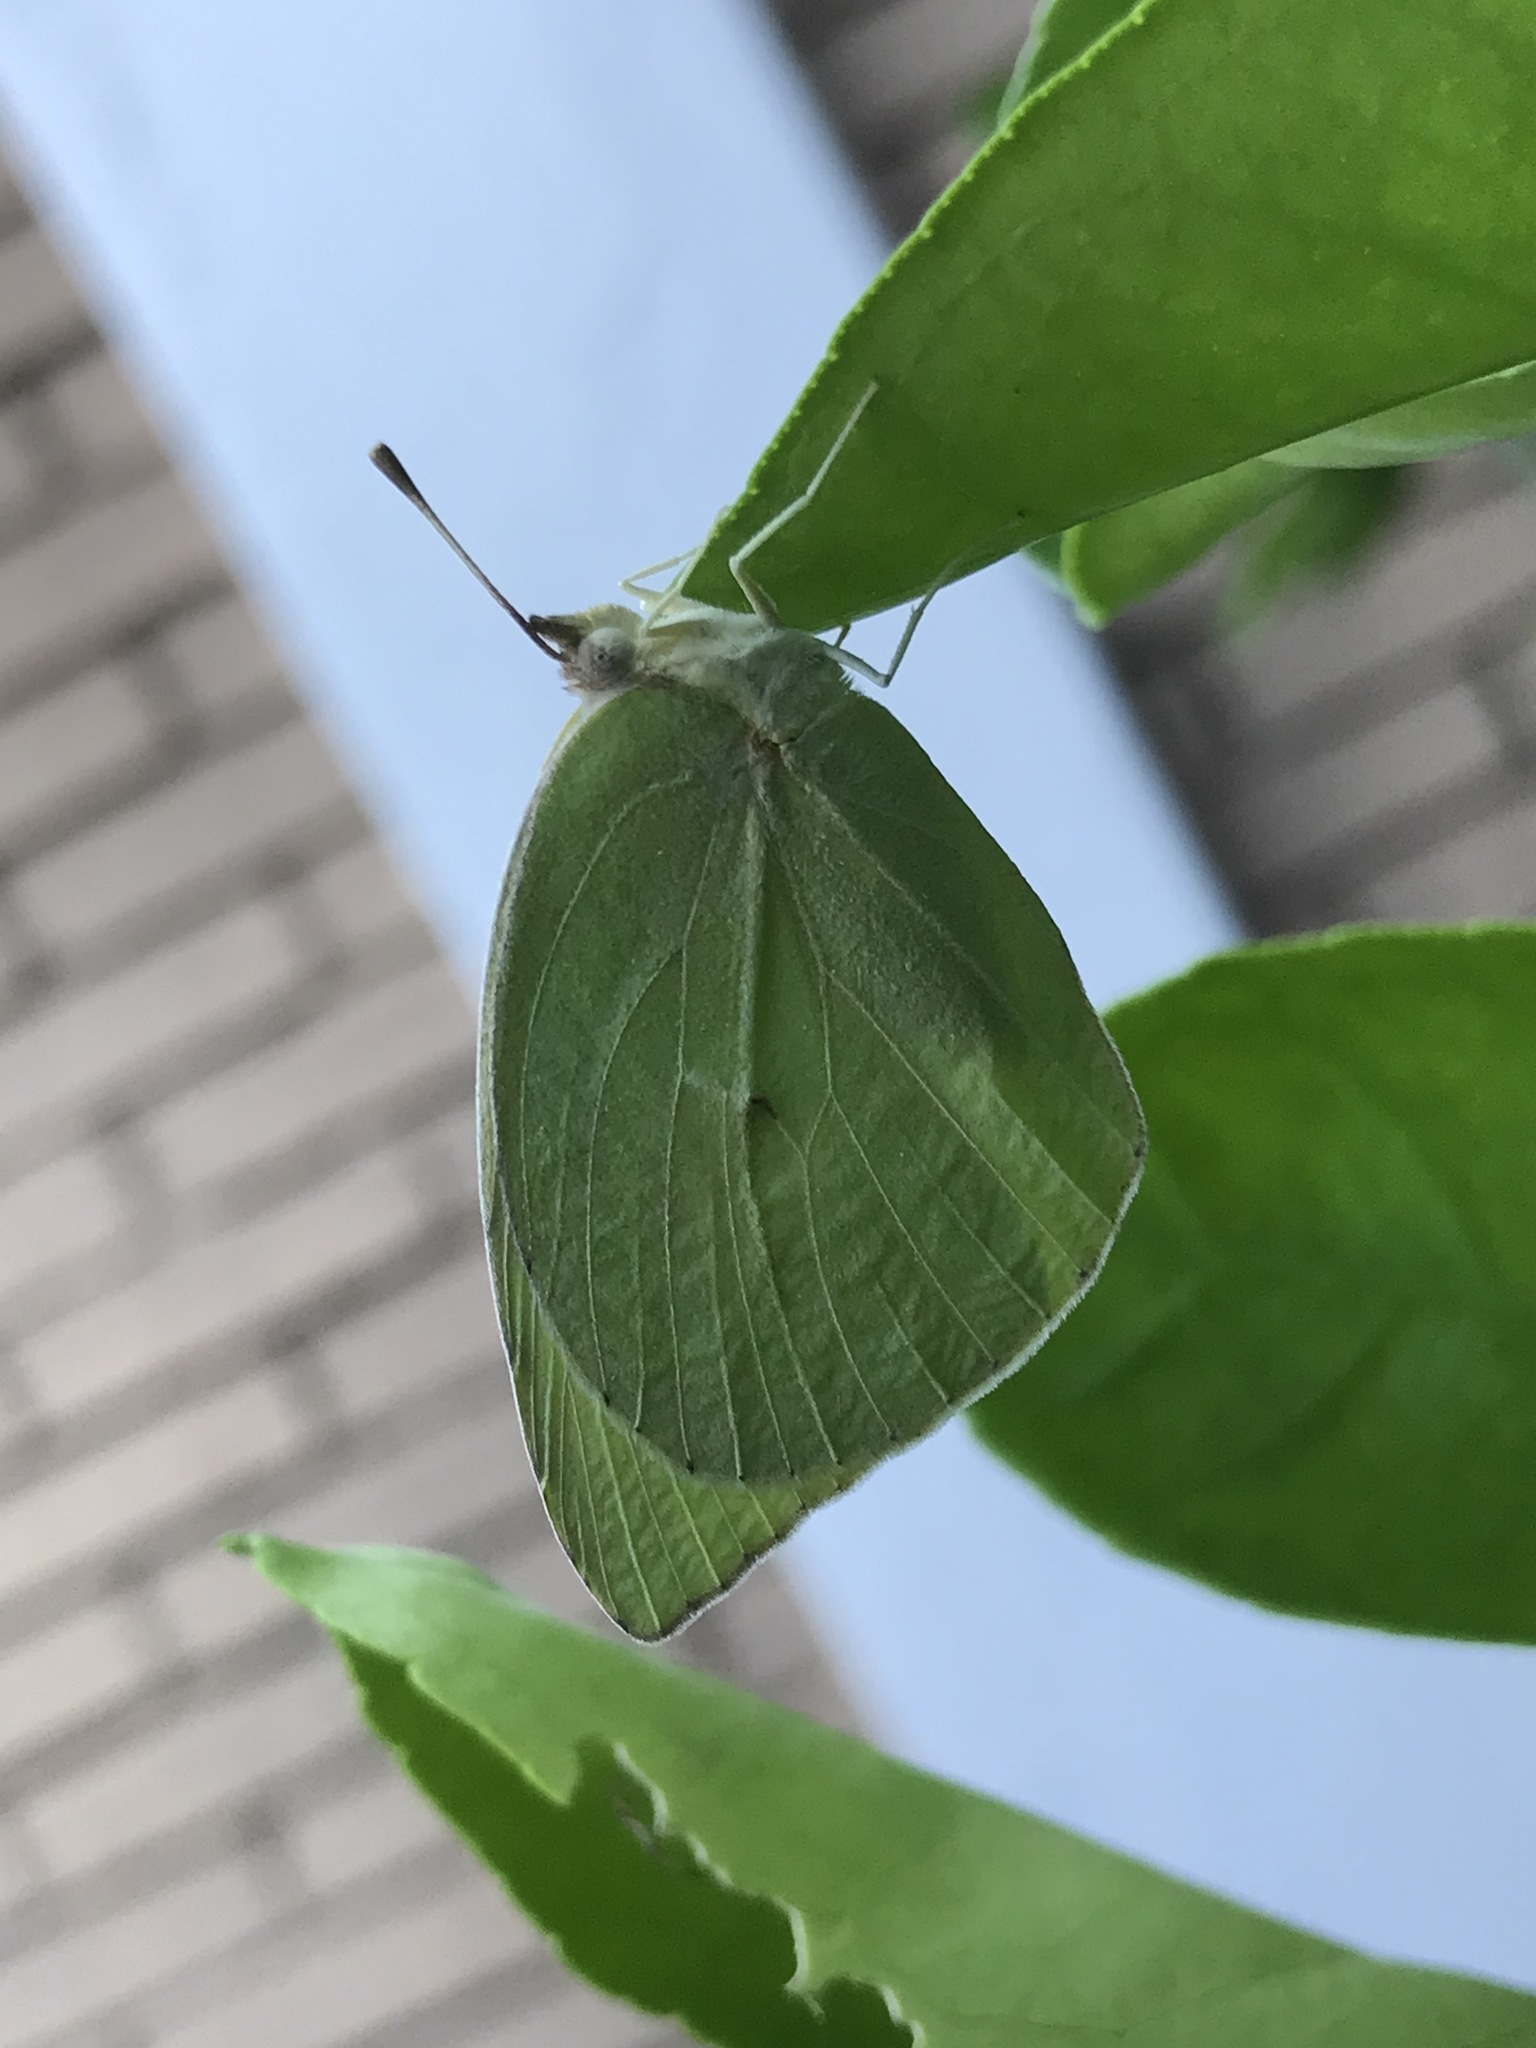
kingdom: Animalia
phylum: Arthropoda
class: Insecta
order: Lepidoptera
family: Pieridae
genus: Kricogonia
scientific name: Kricogonia lyside
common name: Guayacan sulphur,
